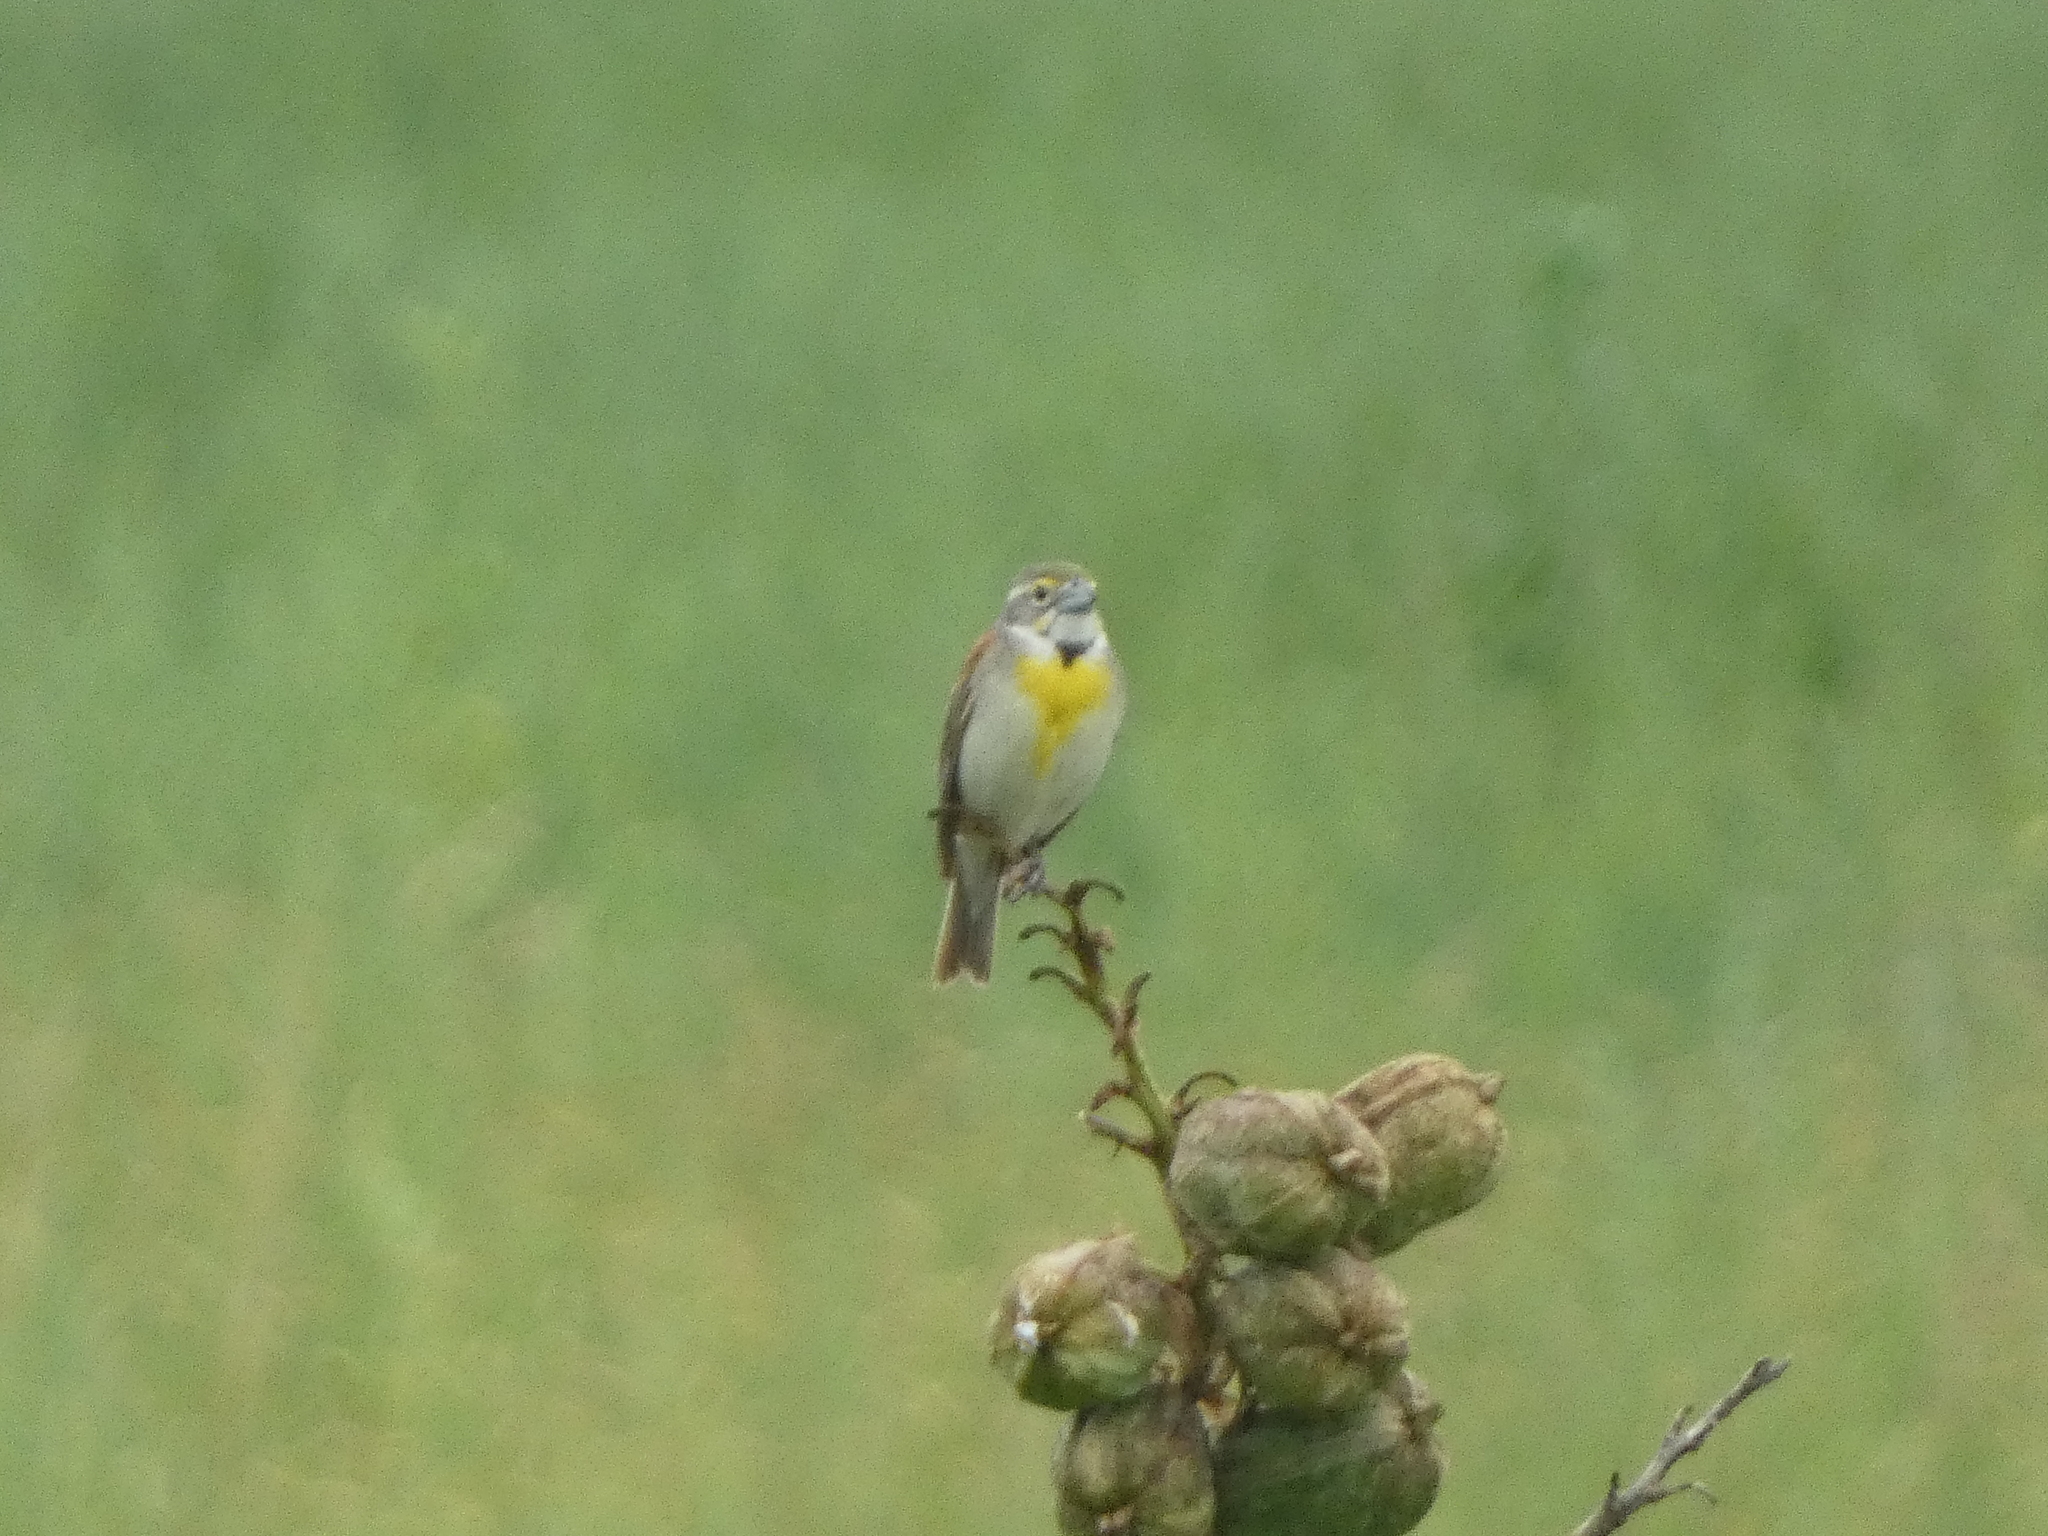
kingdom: Animalia
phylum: Chordata
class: Aves
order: Passeriformes
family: Cardinalidae
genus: Spiza
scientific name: Spiza americana
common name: Dickcissel
